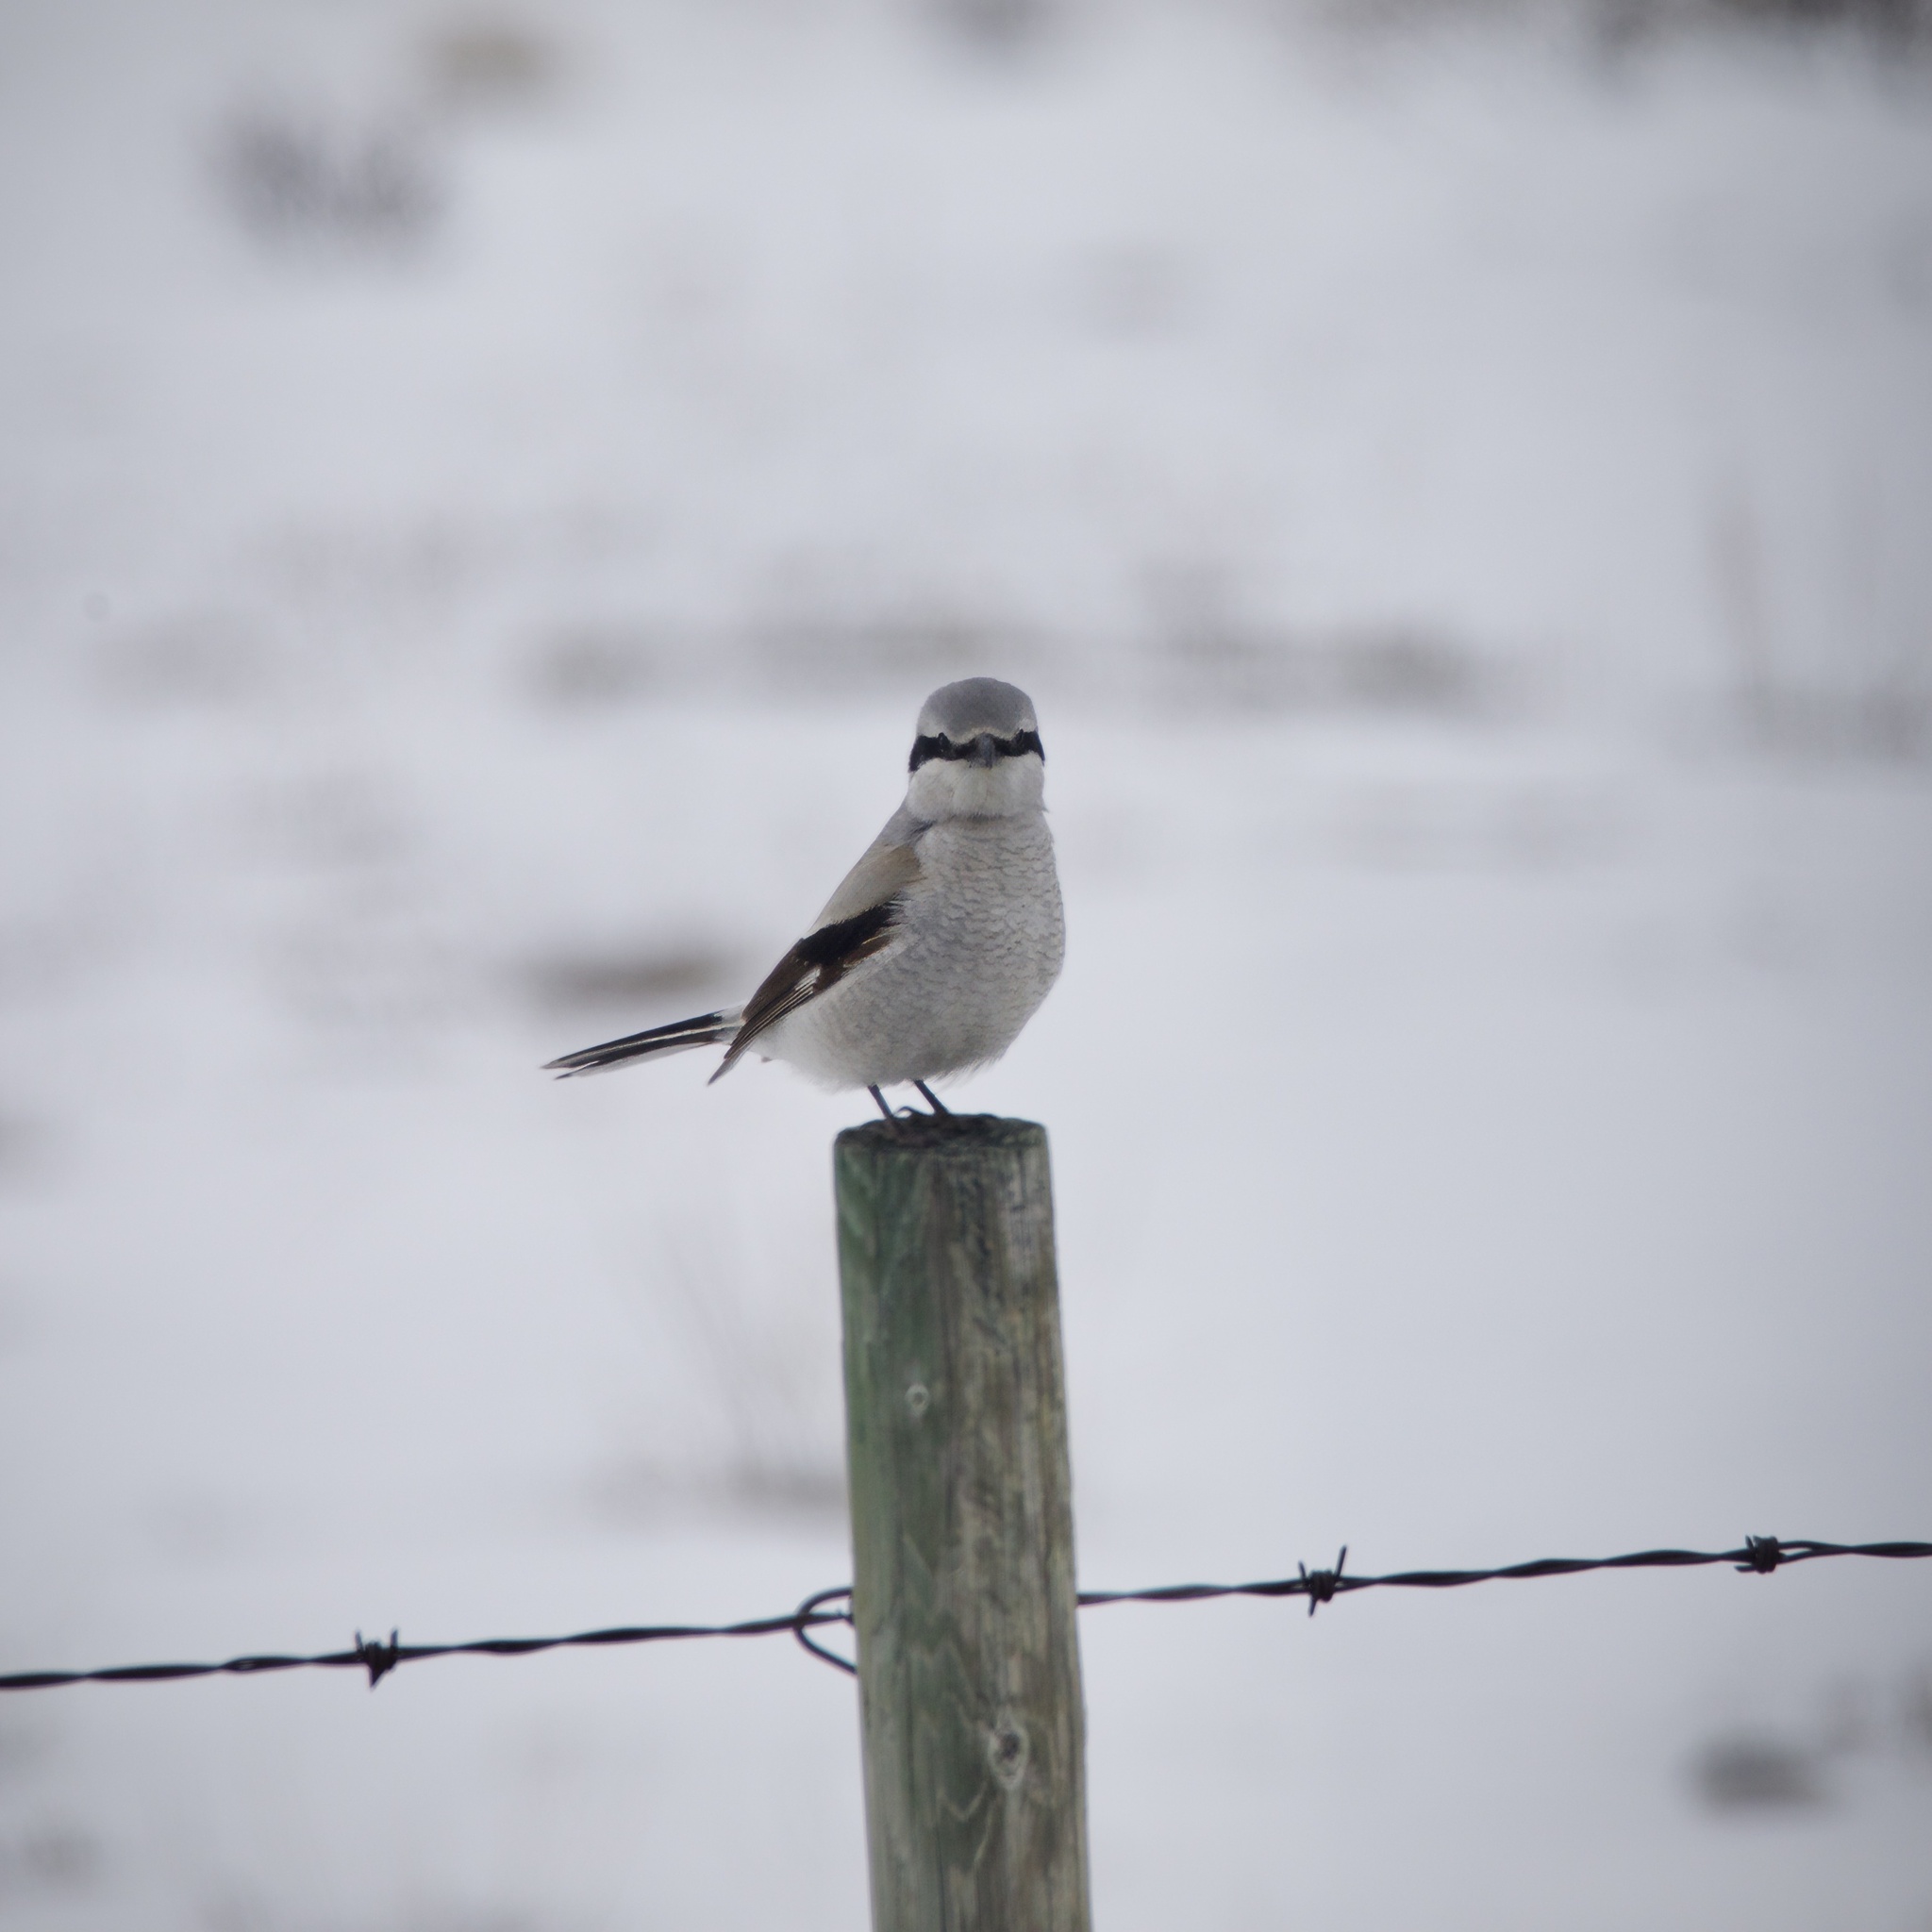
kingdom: Animalia
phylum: Chordata
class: Aves
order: Passeriformes
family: Laniidae
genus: Lanius
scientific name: Lanius borealis
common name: Northern shrike
